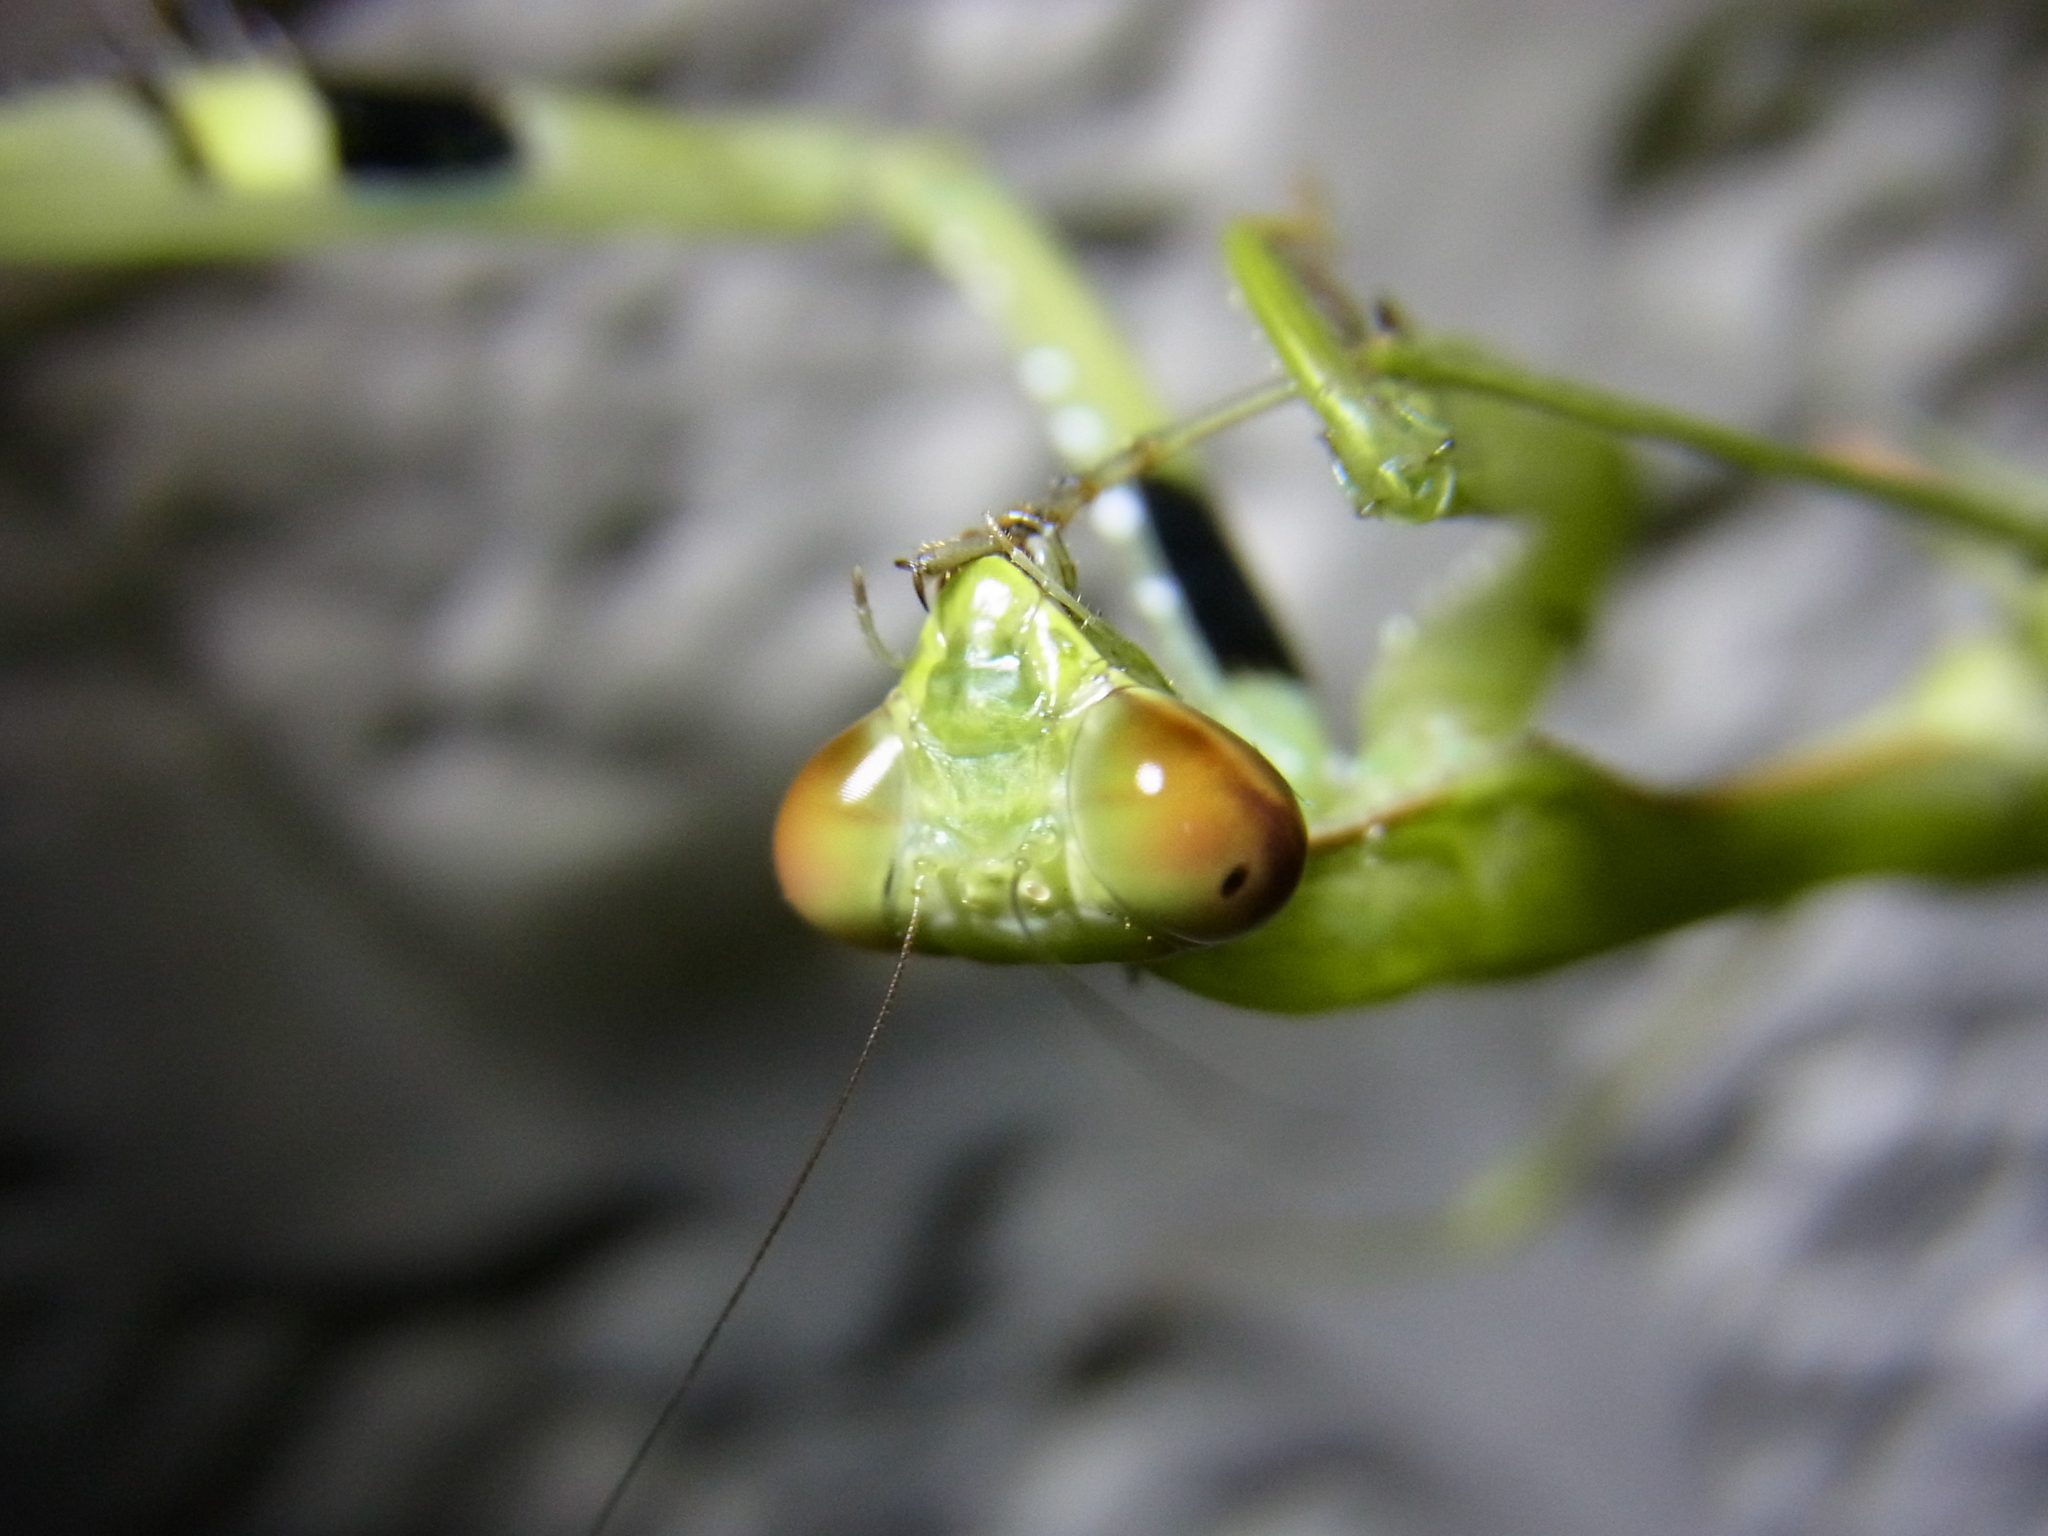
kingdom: Animalia
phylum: Arthropoda
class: Insecta
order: Mantodea
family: Mantidae
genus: Statilia
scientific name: Statilia maculata
